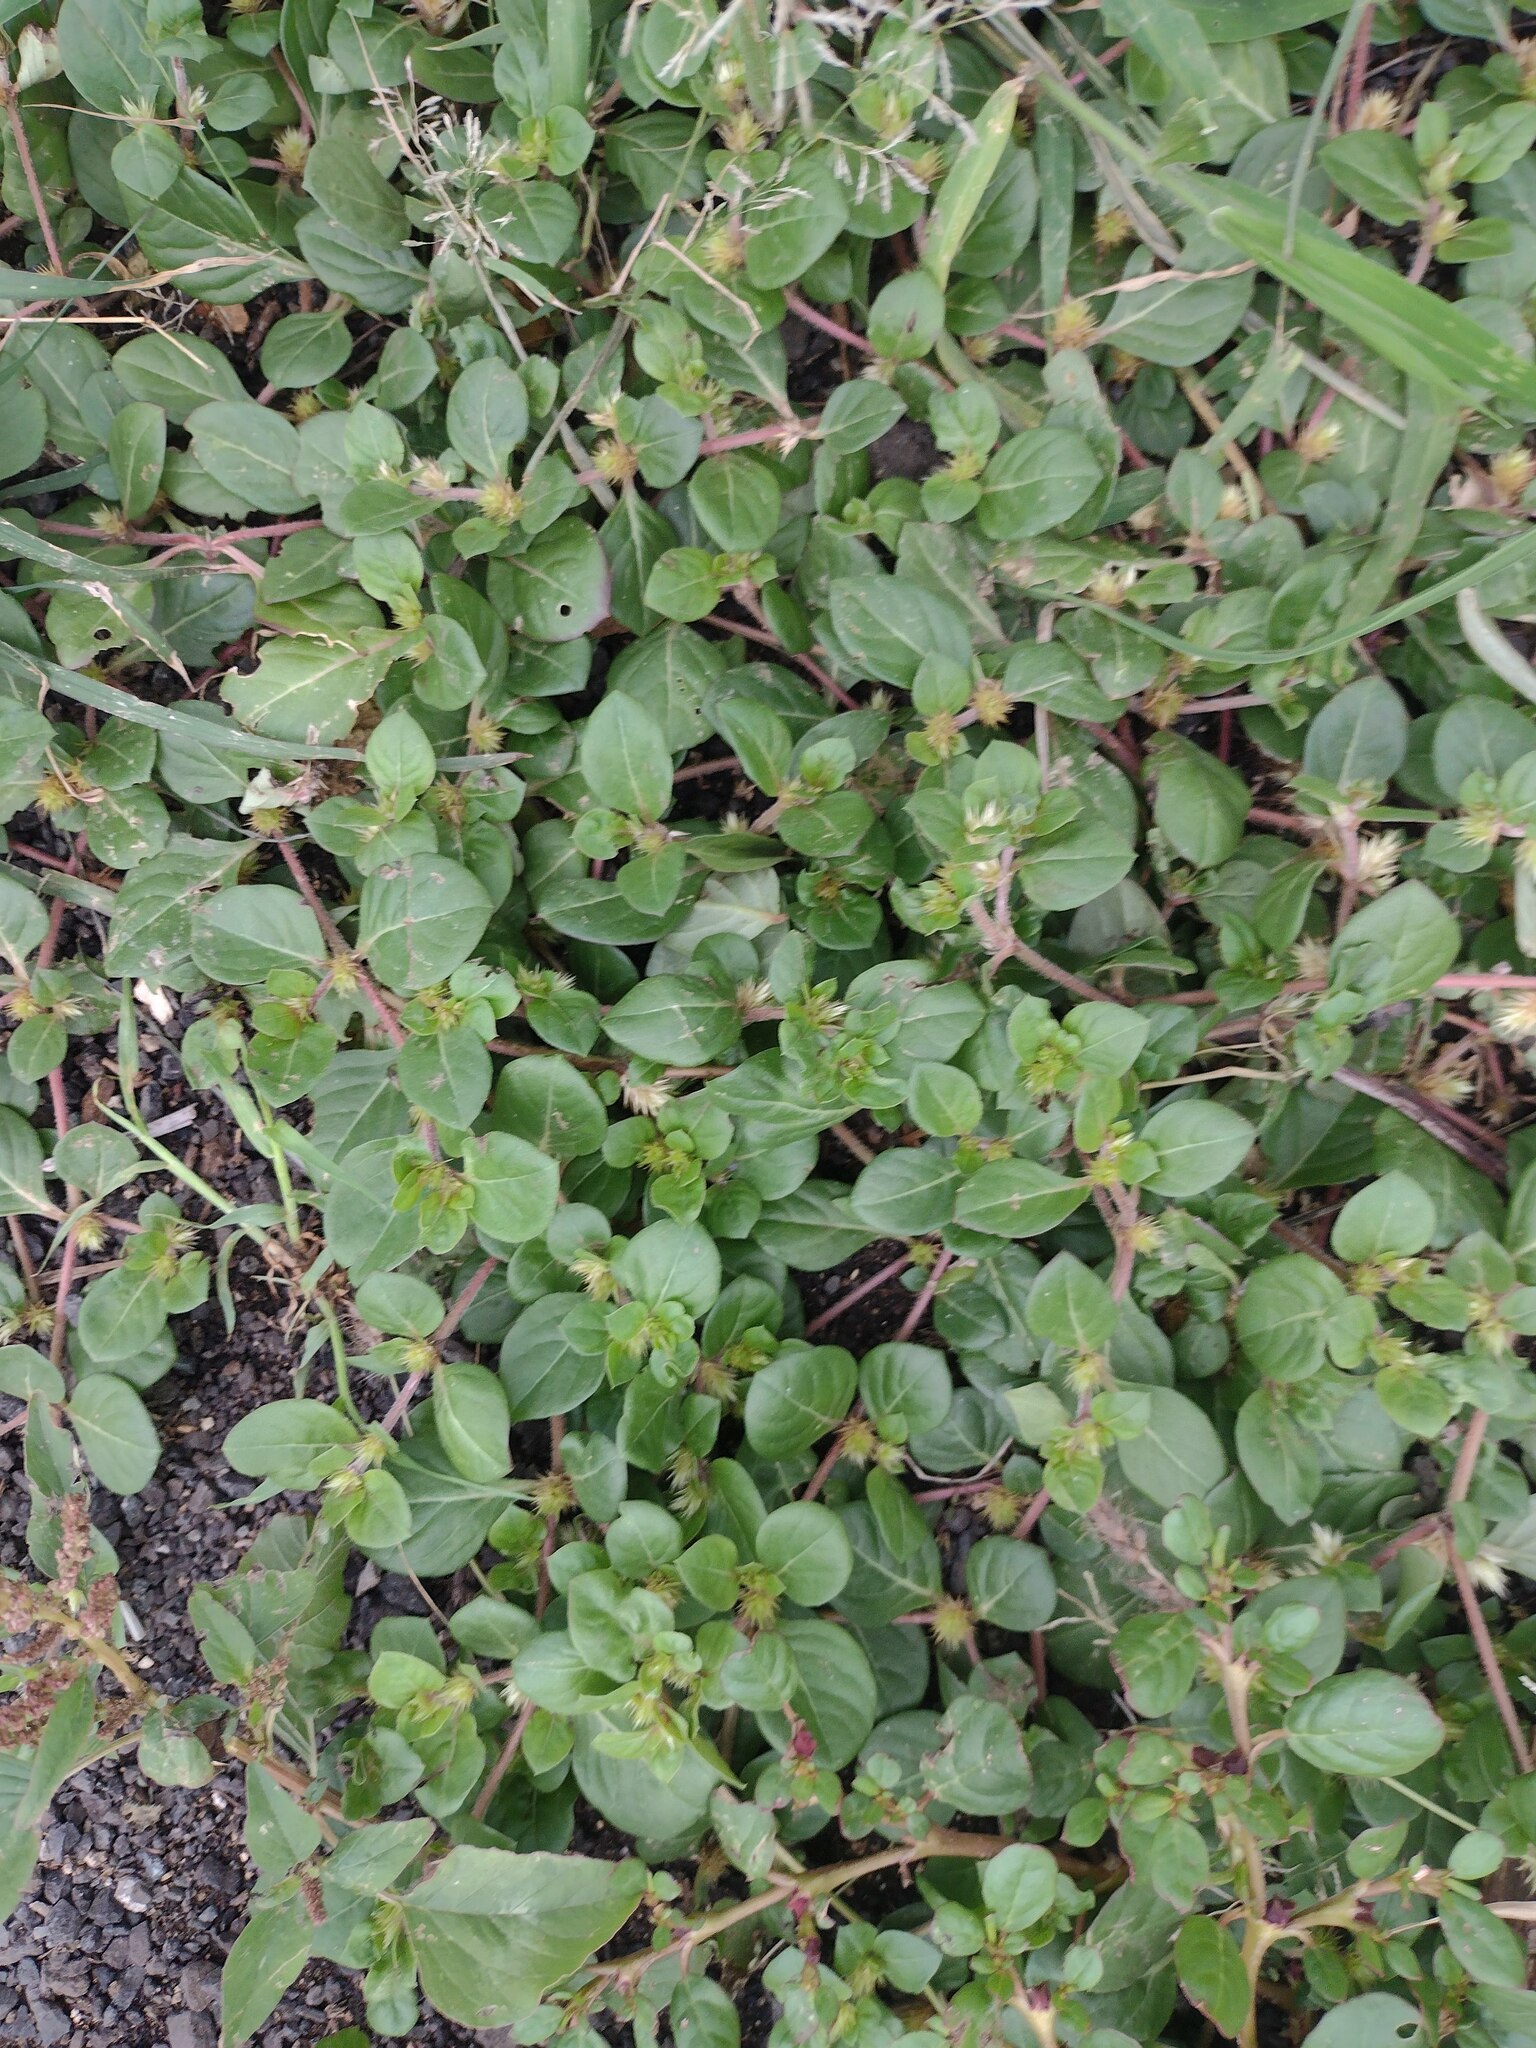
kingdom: Plantae
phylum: Tracheophyta
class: Magnoliopsida
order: Caryophyllales
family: Amaranthaceae
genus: Alternanthera
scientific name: Alternanthera pungens
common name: Khakiweed
